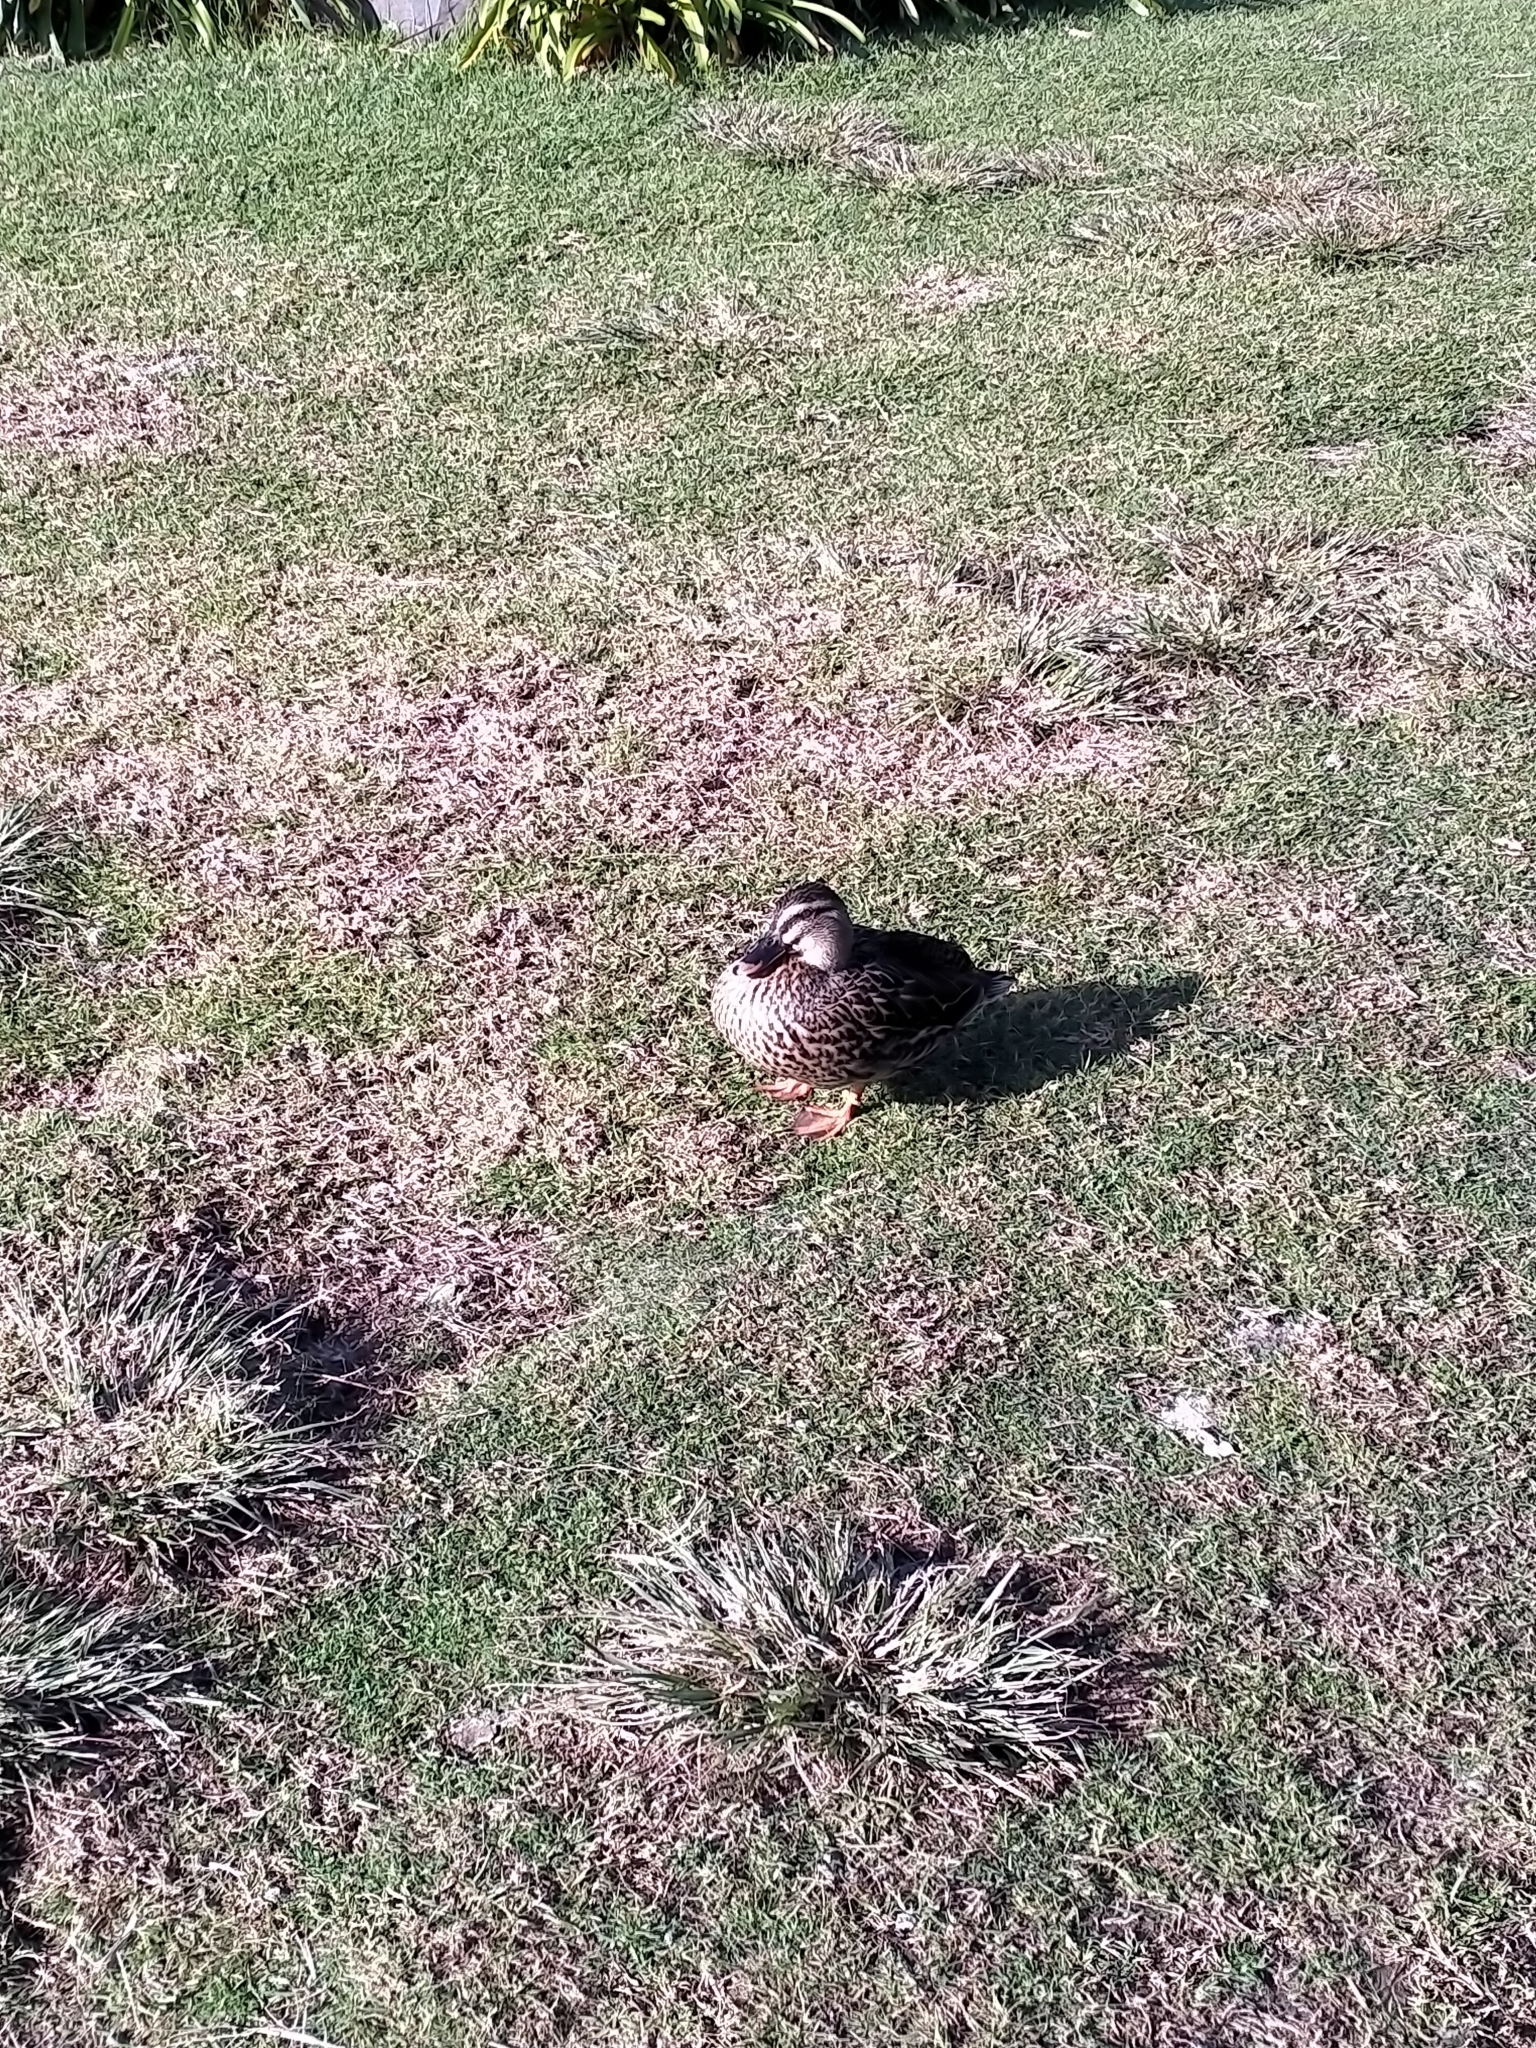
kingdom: Animalia
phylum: Chordata
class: Aves
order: Anseriformes
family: Anatidae
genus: Anas
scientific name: Anas
